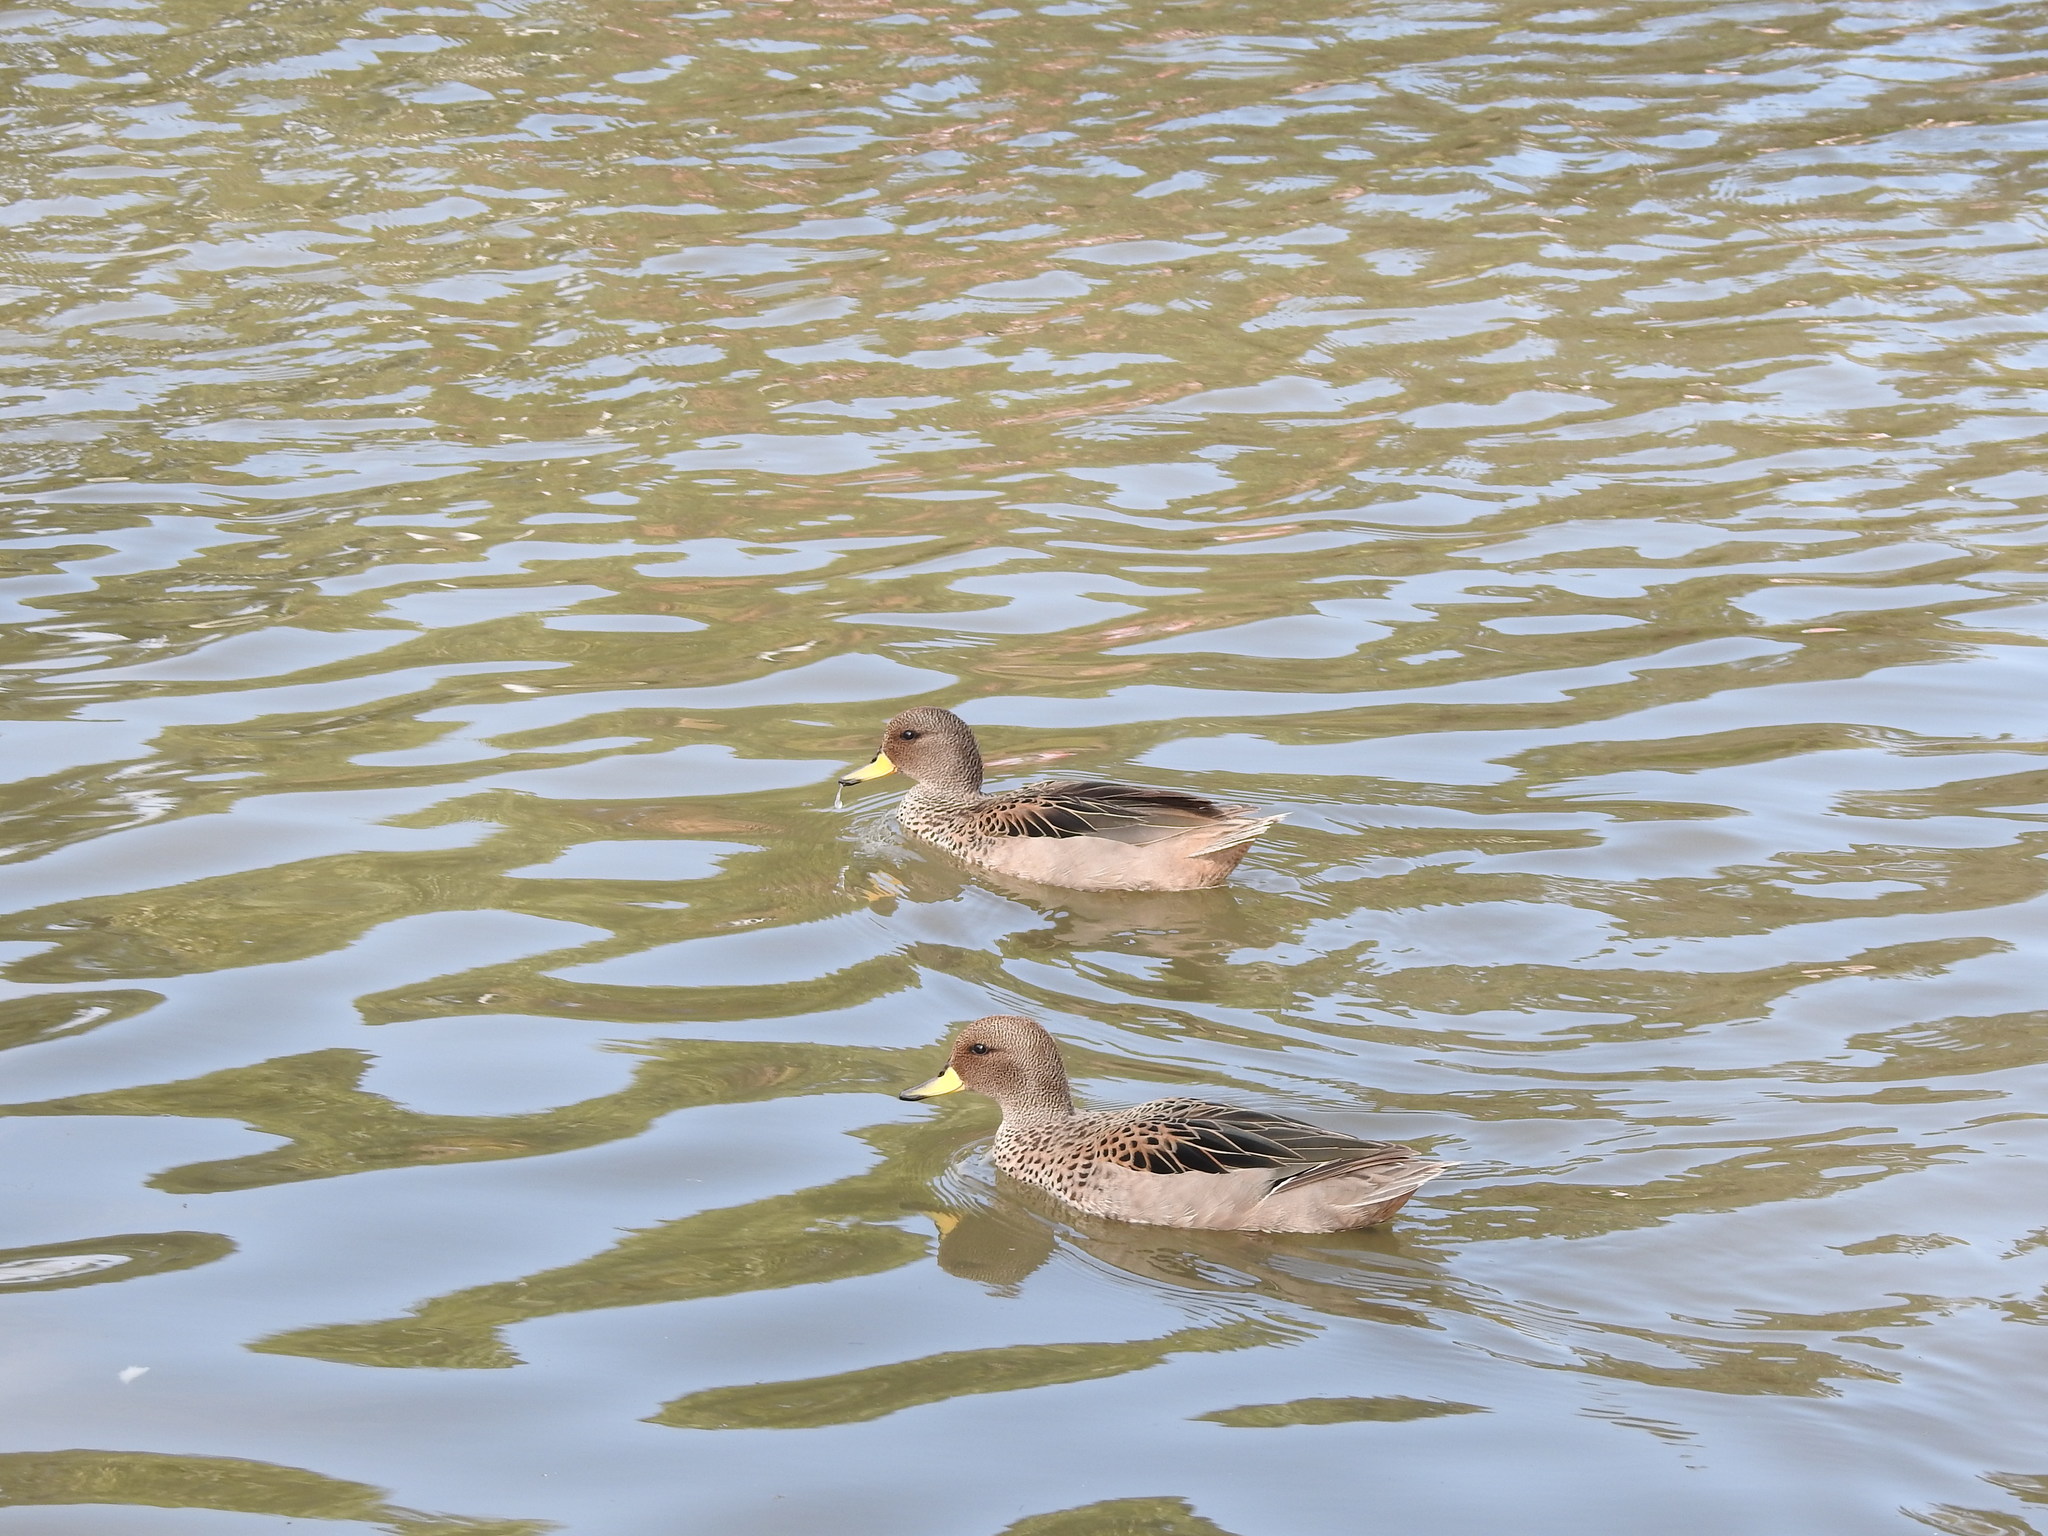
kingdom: Animalia
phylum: Chordata
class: Aves
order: Anseriformes
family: Anatidae
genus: Anas
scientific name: Anas flavirostris
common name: Yellow-billed teal
